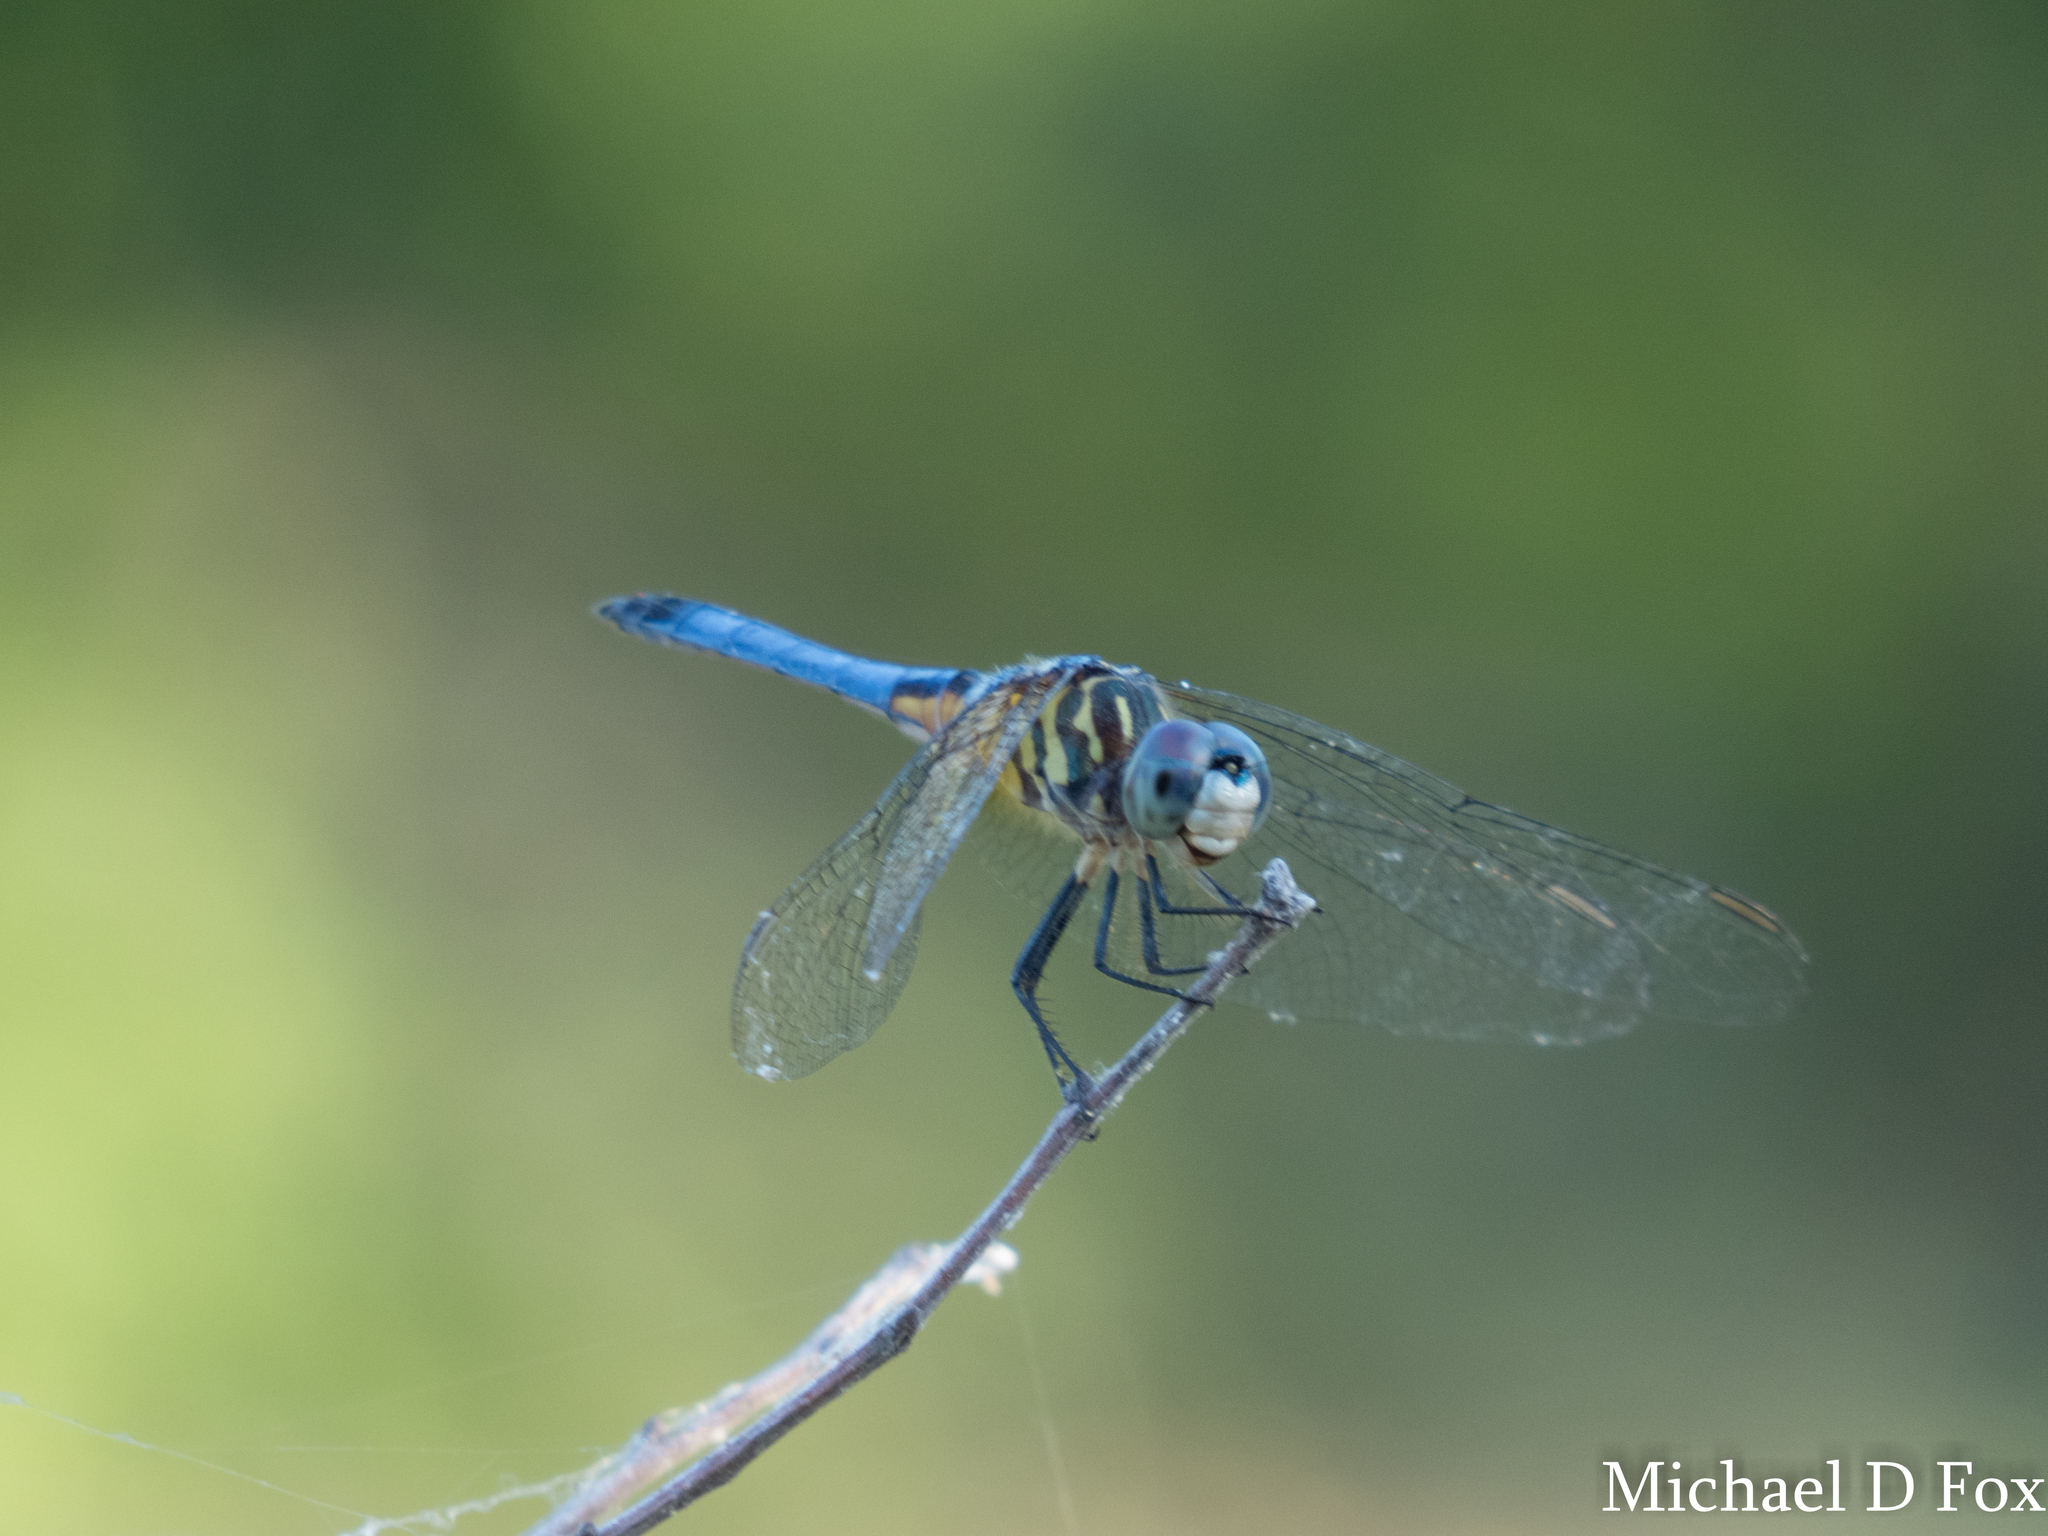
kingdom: Animalia
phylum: Arthropoda
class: Insecta
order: Odonata
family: Libellulidae
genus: Pachydiplax
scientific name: Pachydiplax longipennis
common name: Blue dasher
